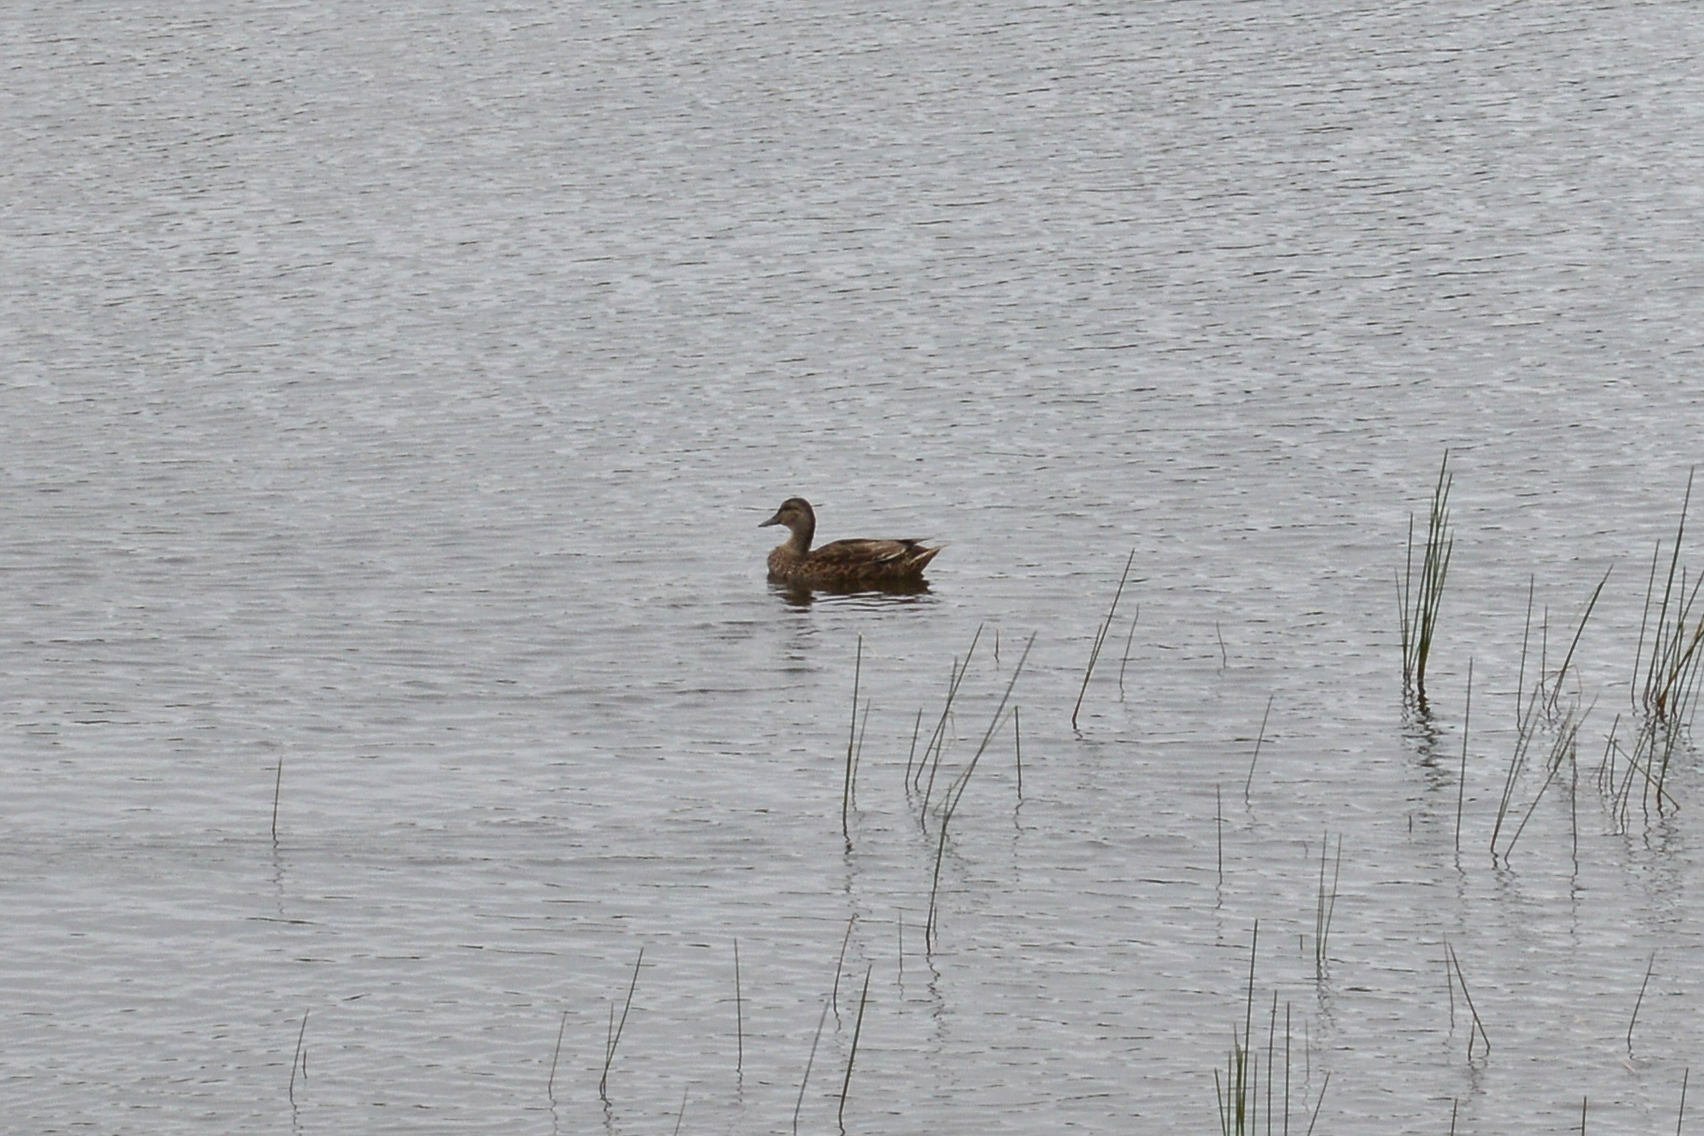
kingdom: Animalia
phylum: Chordata
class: Aves
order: Anseriformes
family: Anatidae
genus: Anas
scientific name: Anas platyrhynchos
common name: Mallard
